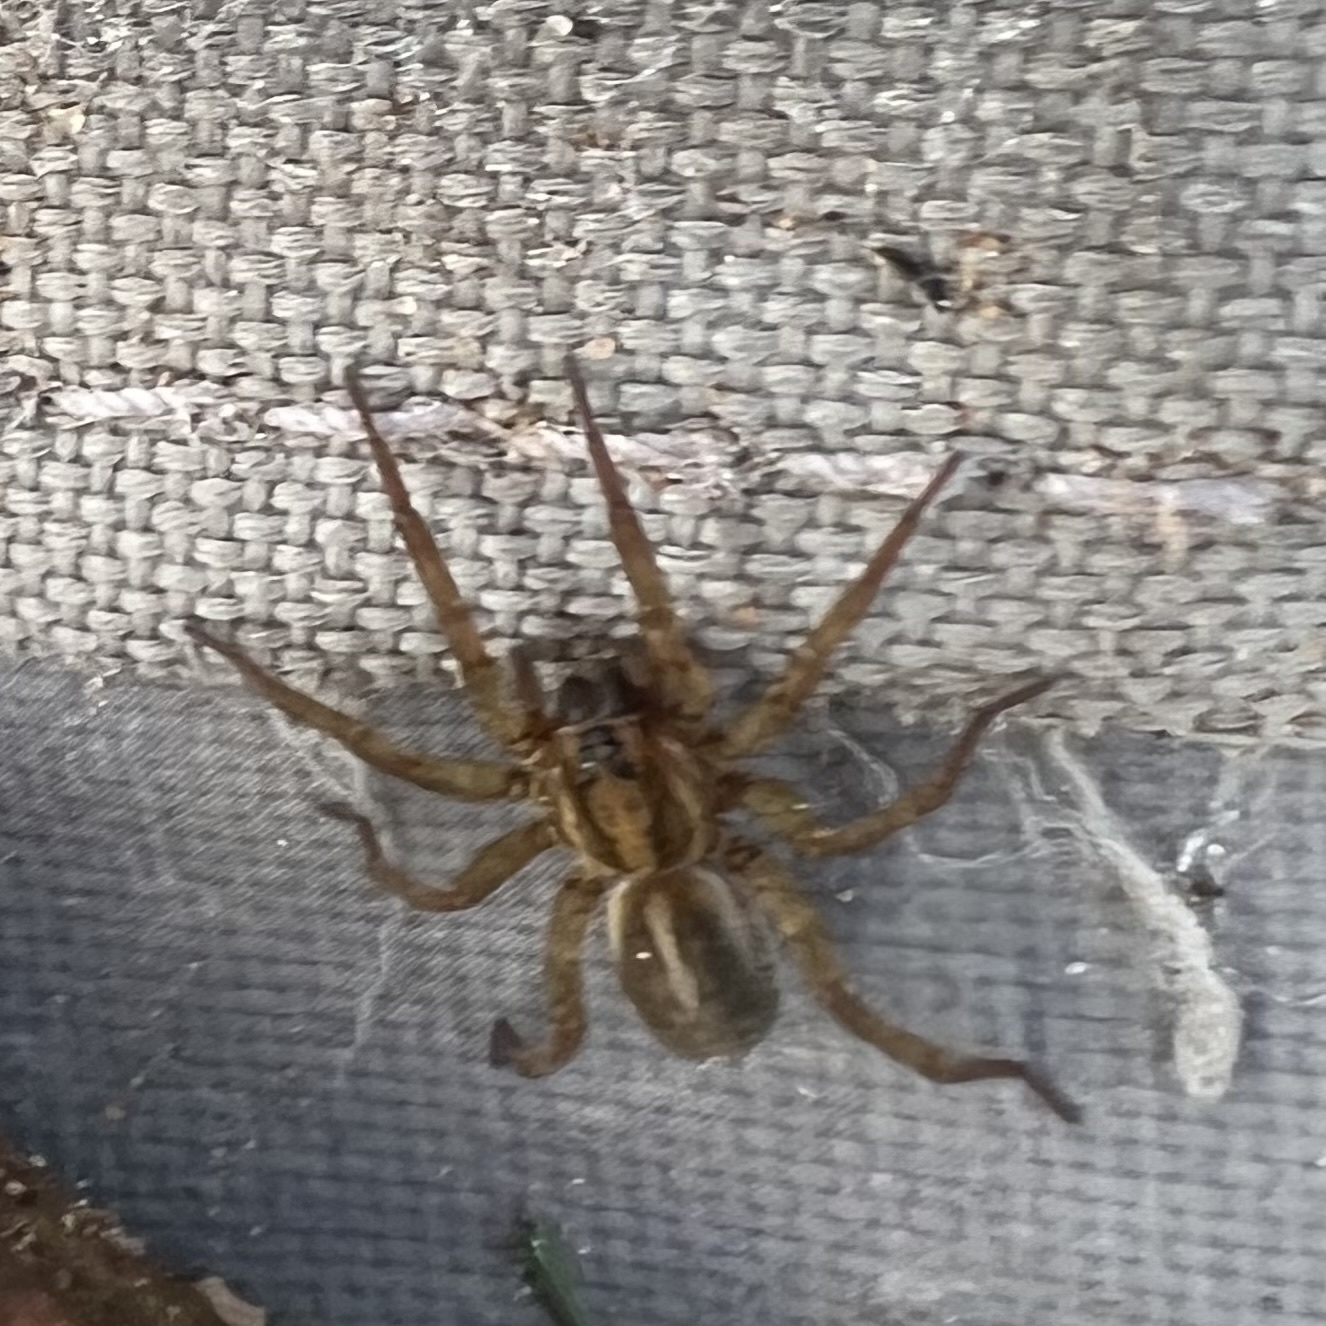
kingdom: Animalia
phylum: Arthropoda
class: Arachnida
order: Araneae
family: Lycosidae
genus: Trochosa
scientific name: Trochosa ruricola
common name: Spider
